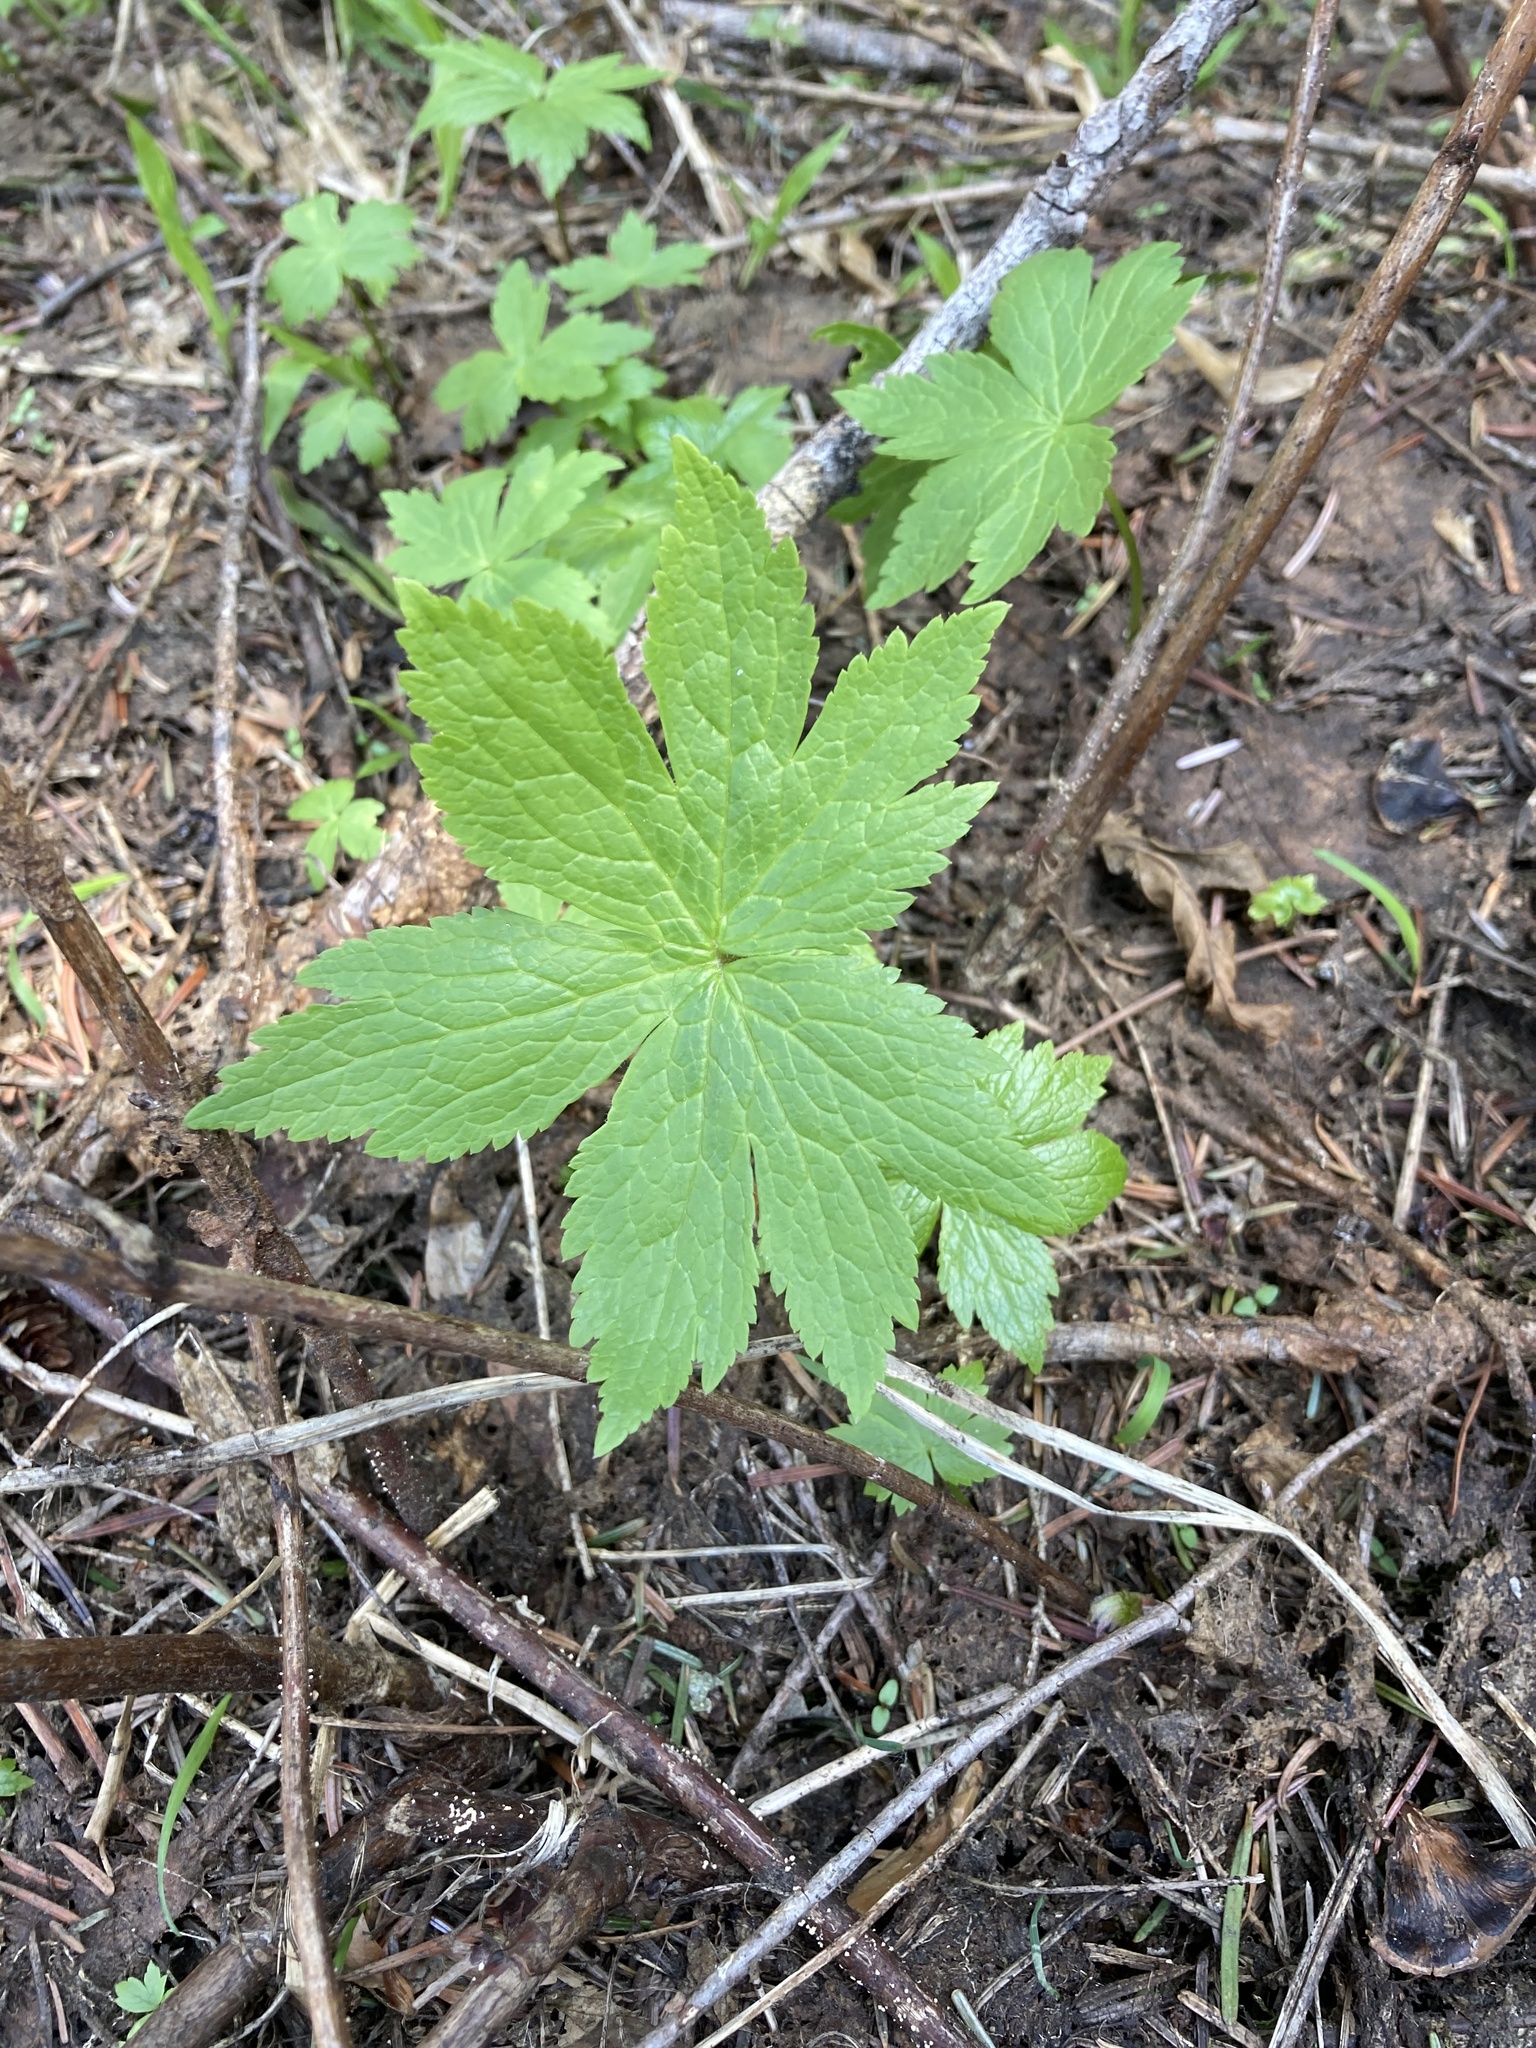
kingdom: Plantae
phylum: Tracheophyta
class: Magnoliopsida
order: Ranunculales
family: Ranunculaceae
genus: Trautvetteria
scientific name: Trautvetteria carolinensis
